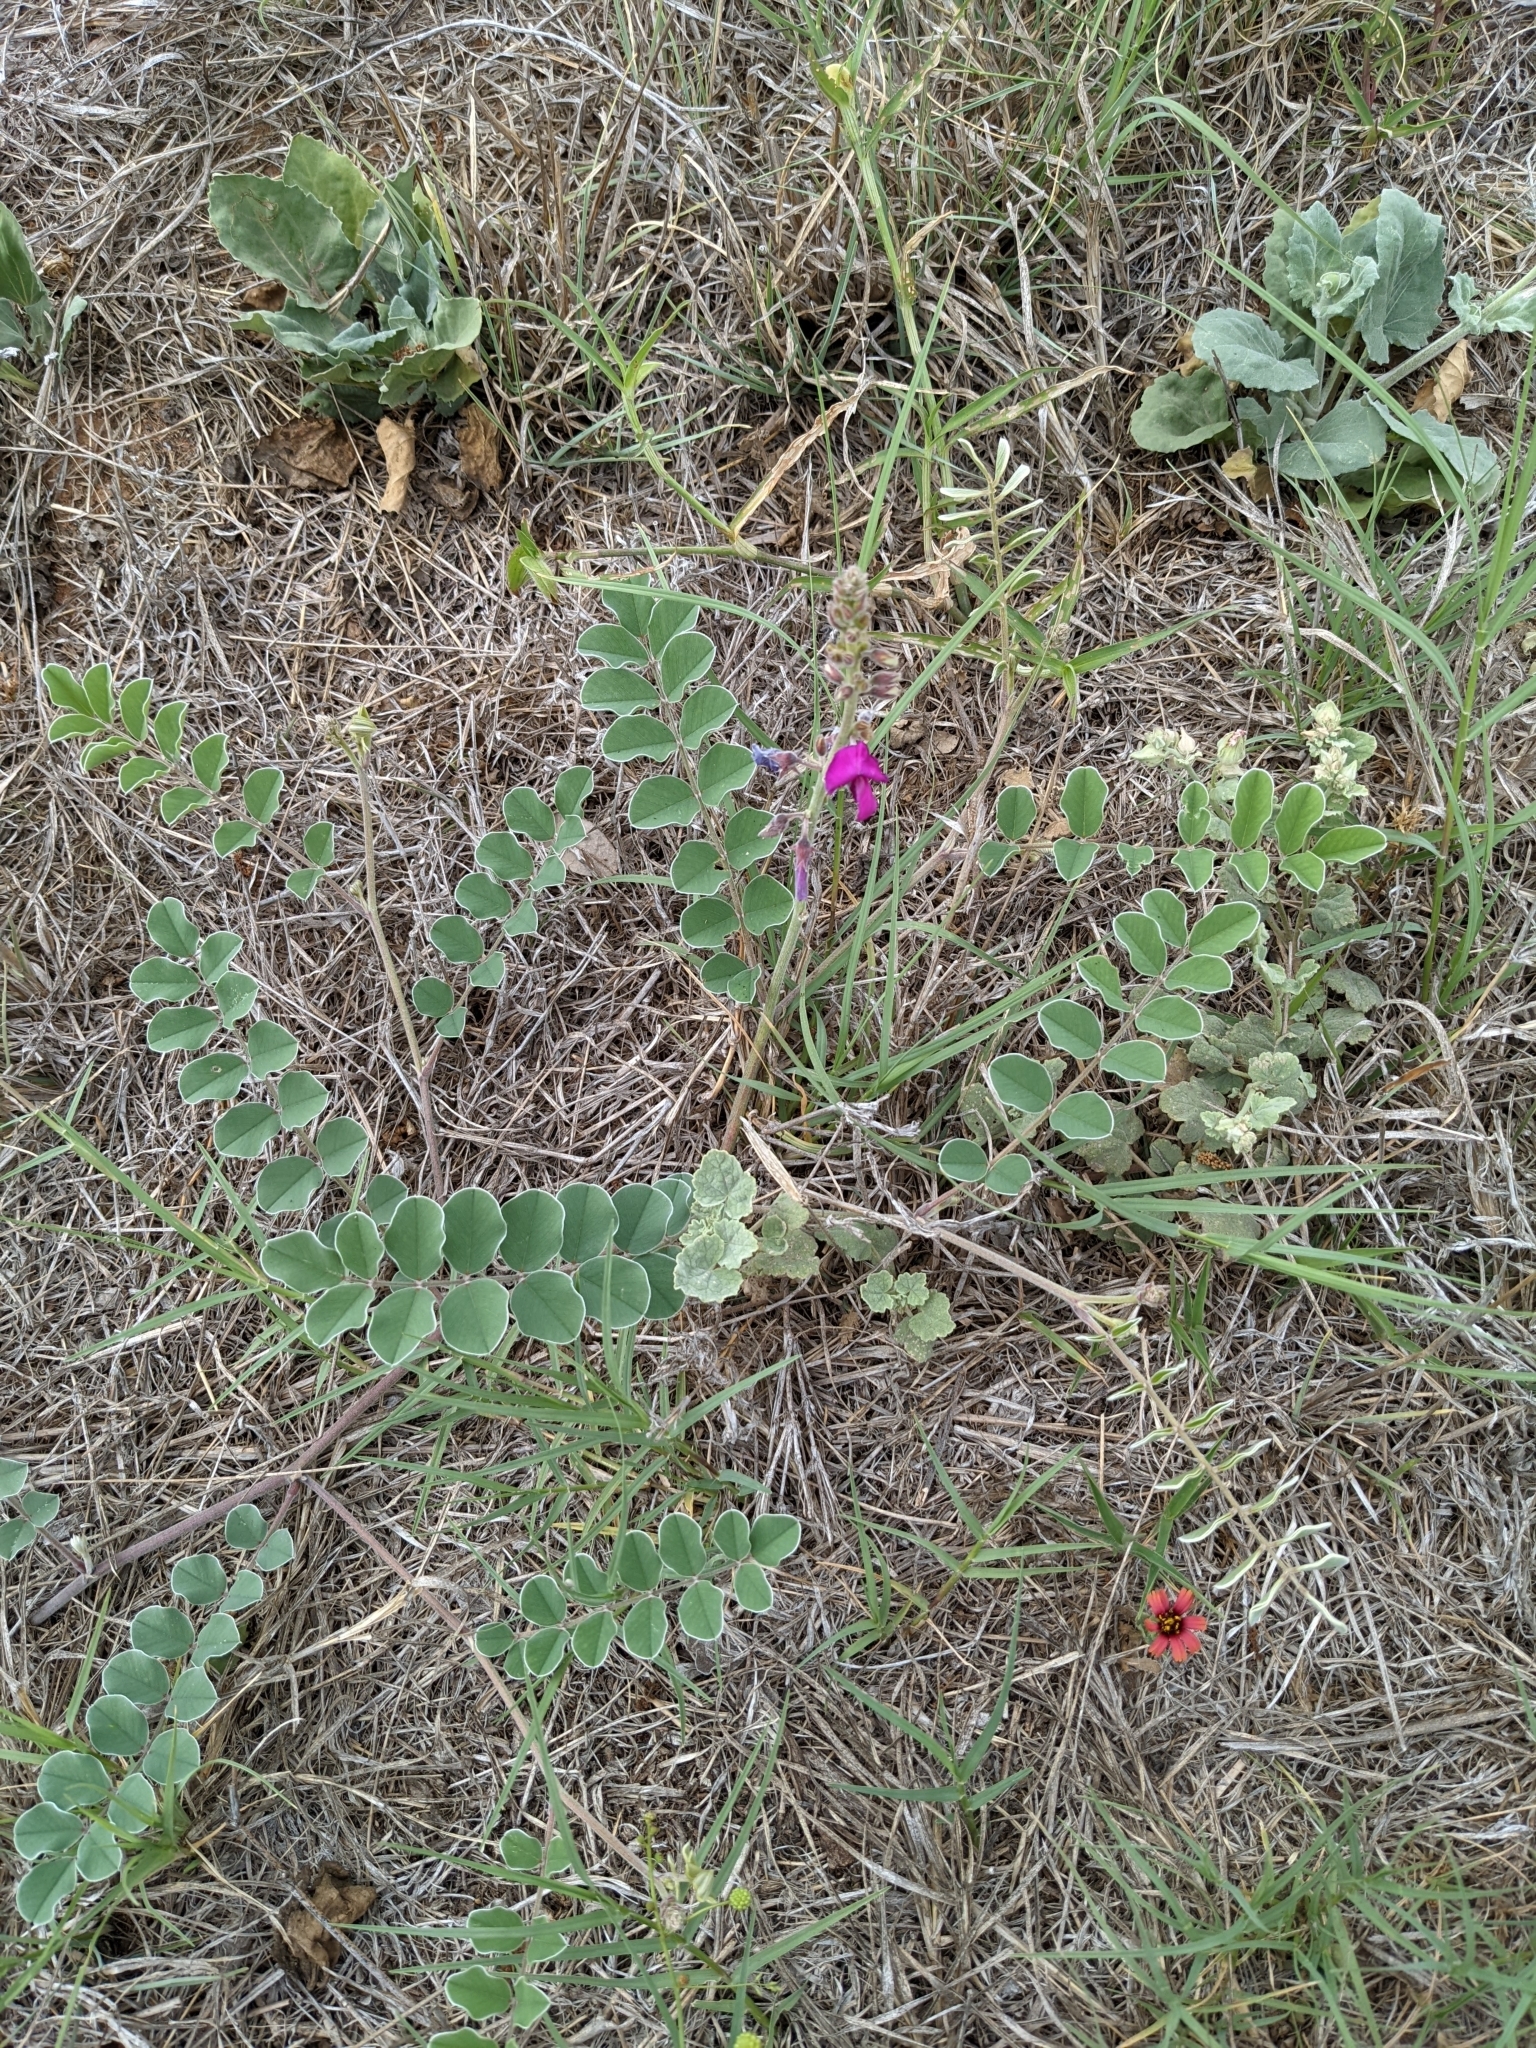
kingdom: Plantae
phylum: Tracheophyta
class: Magnoliopsida
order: Fabales
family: Fabaceae
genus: Tephrosia
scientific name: Tephrosia lindheimeri
